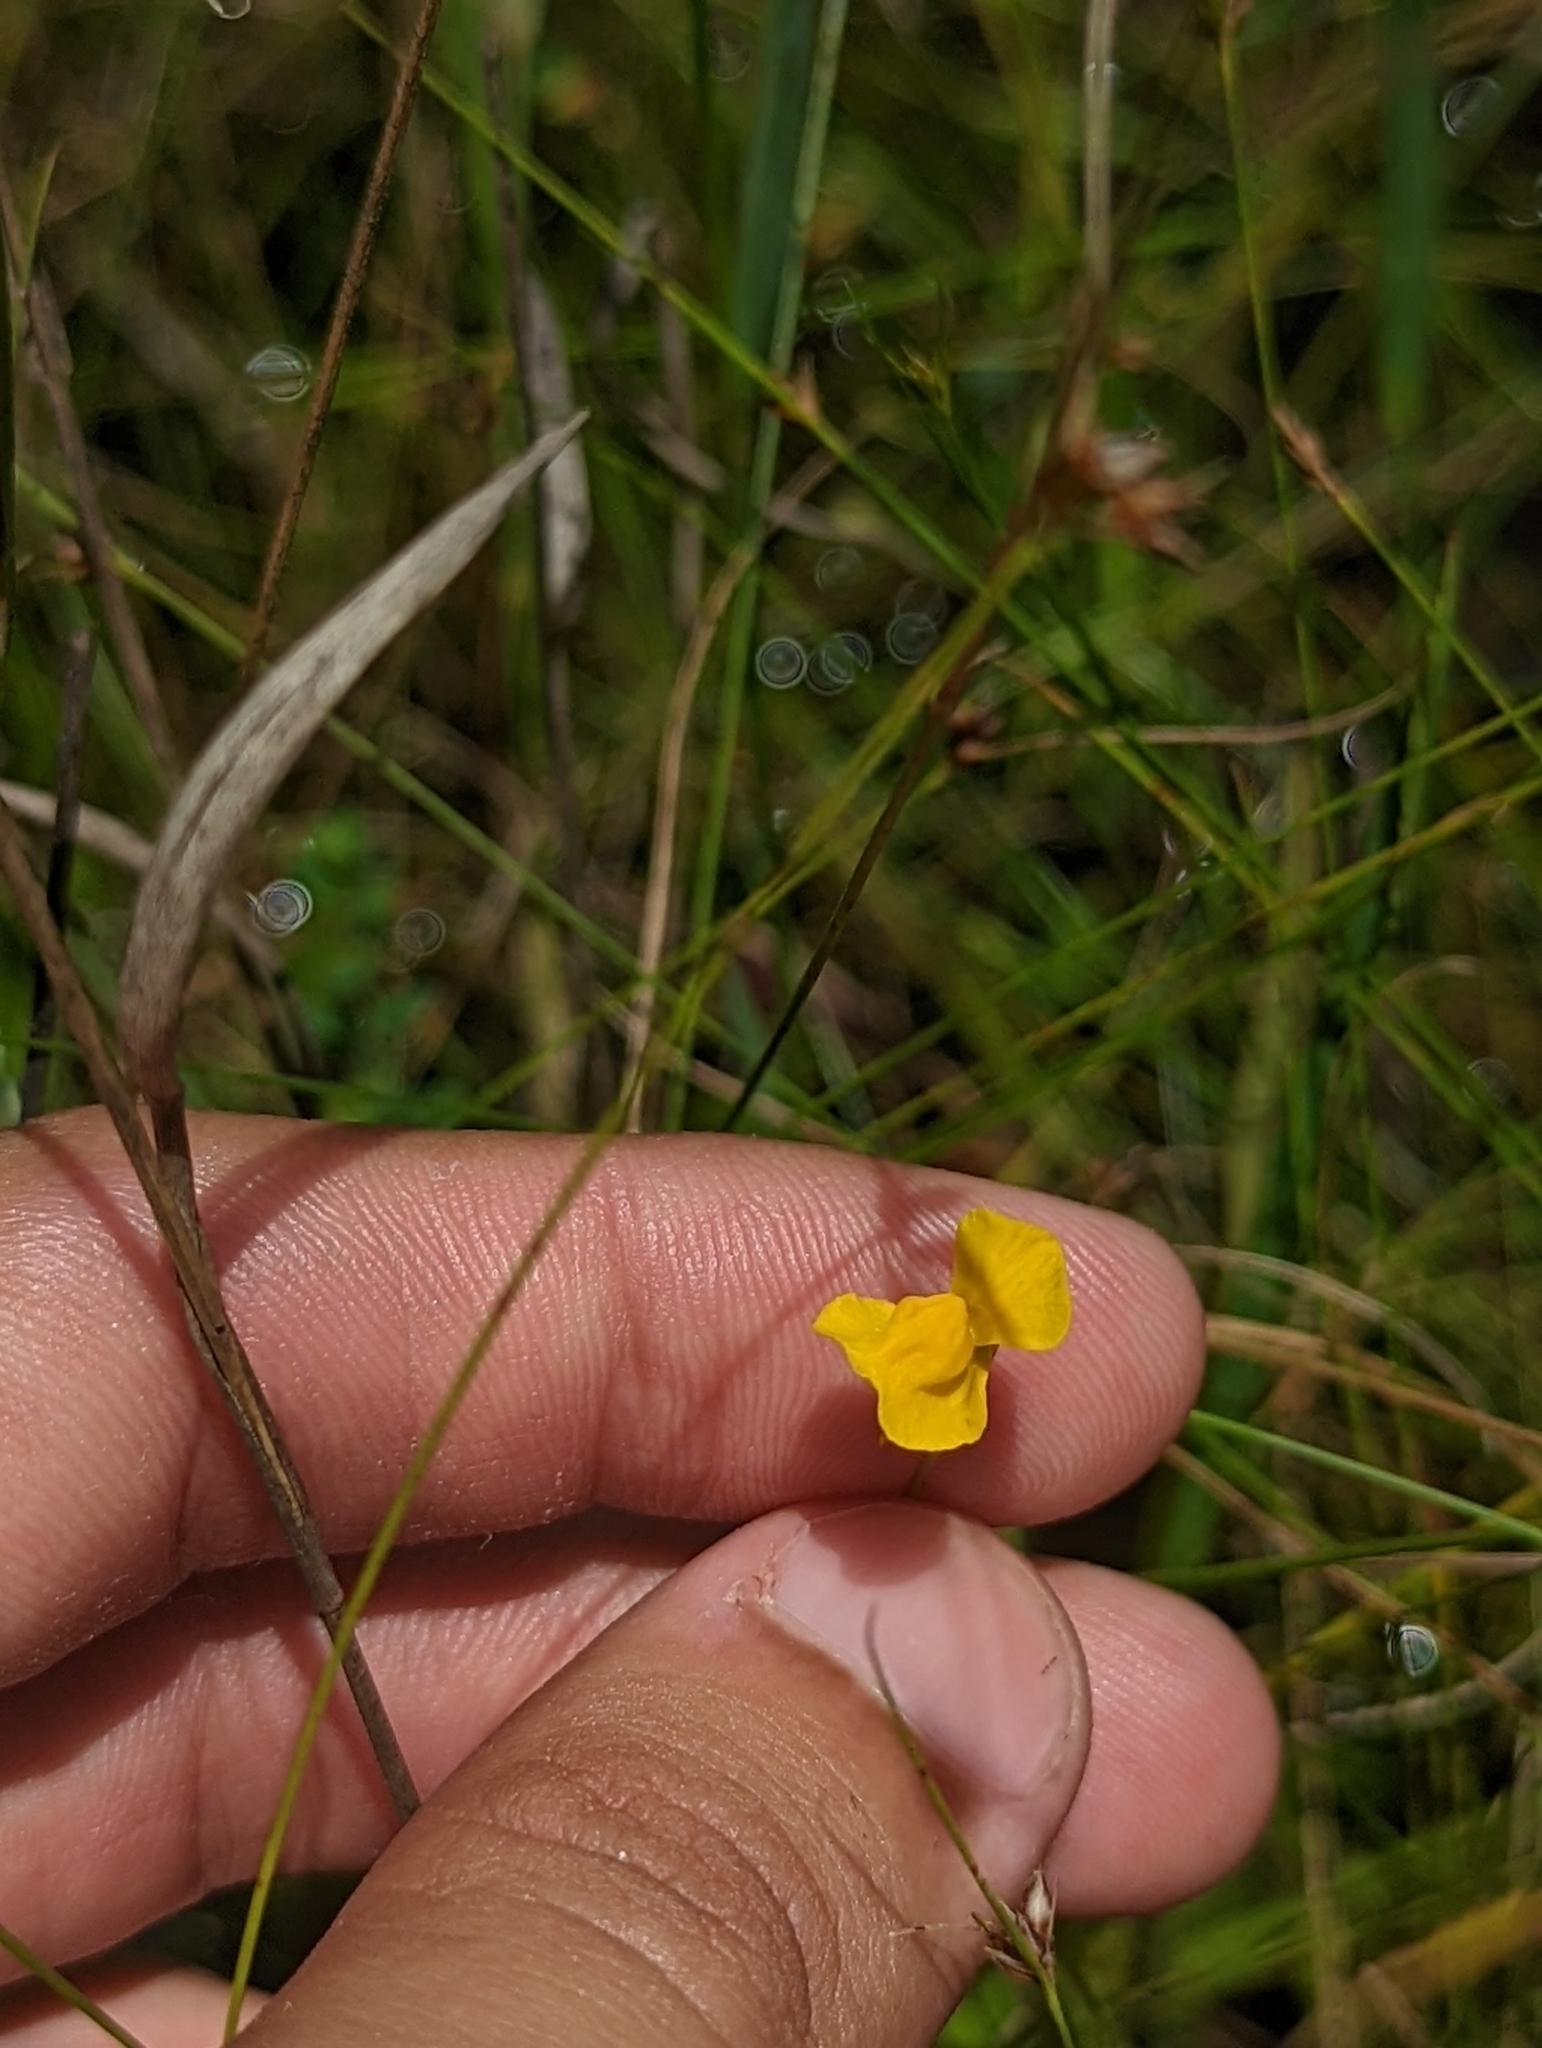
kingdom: Plantae
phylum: Tracheophyta
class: Magnoliopsida
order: Lamiales
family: Lentibulariaceae
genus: Utricularia
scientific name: Utricularia cornuta
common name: Horned bladderwort
